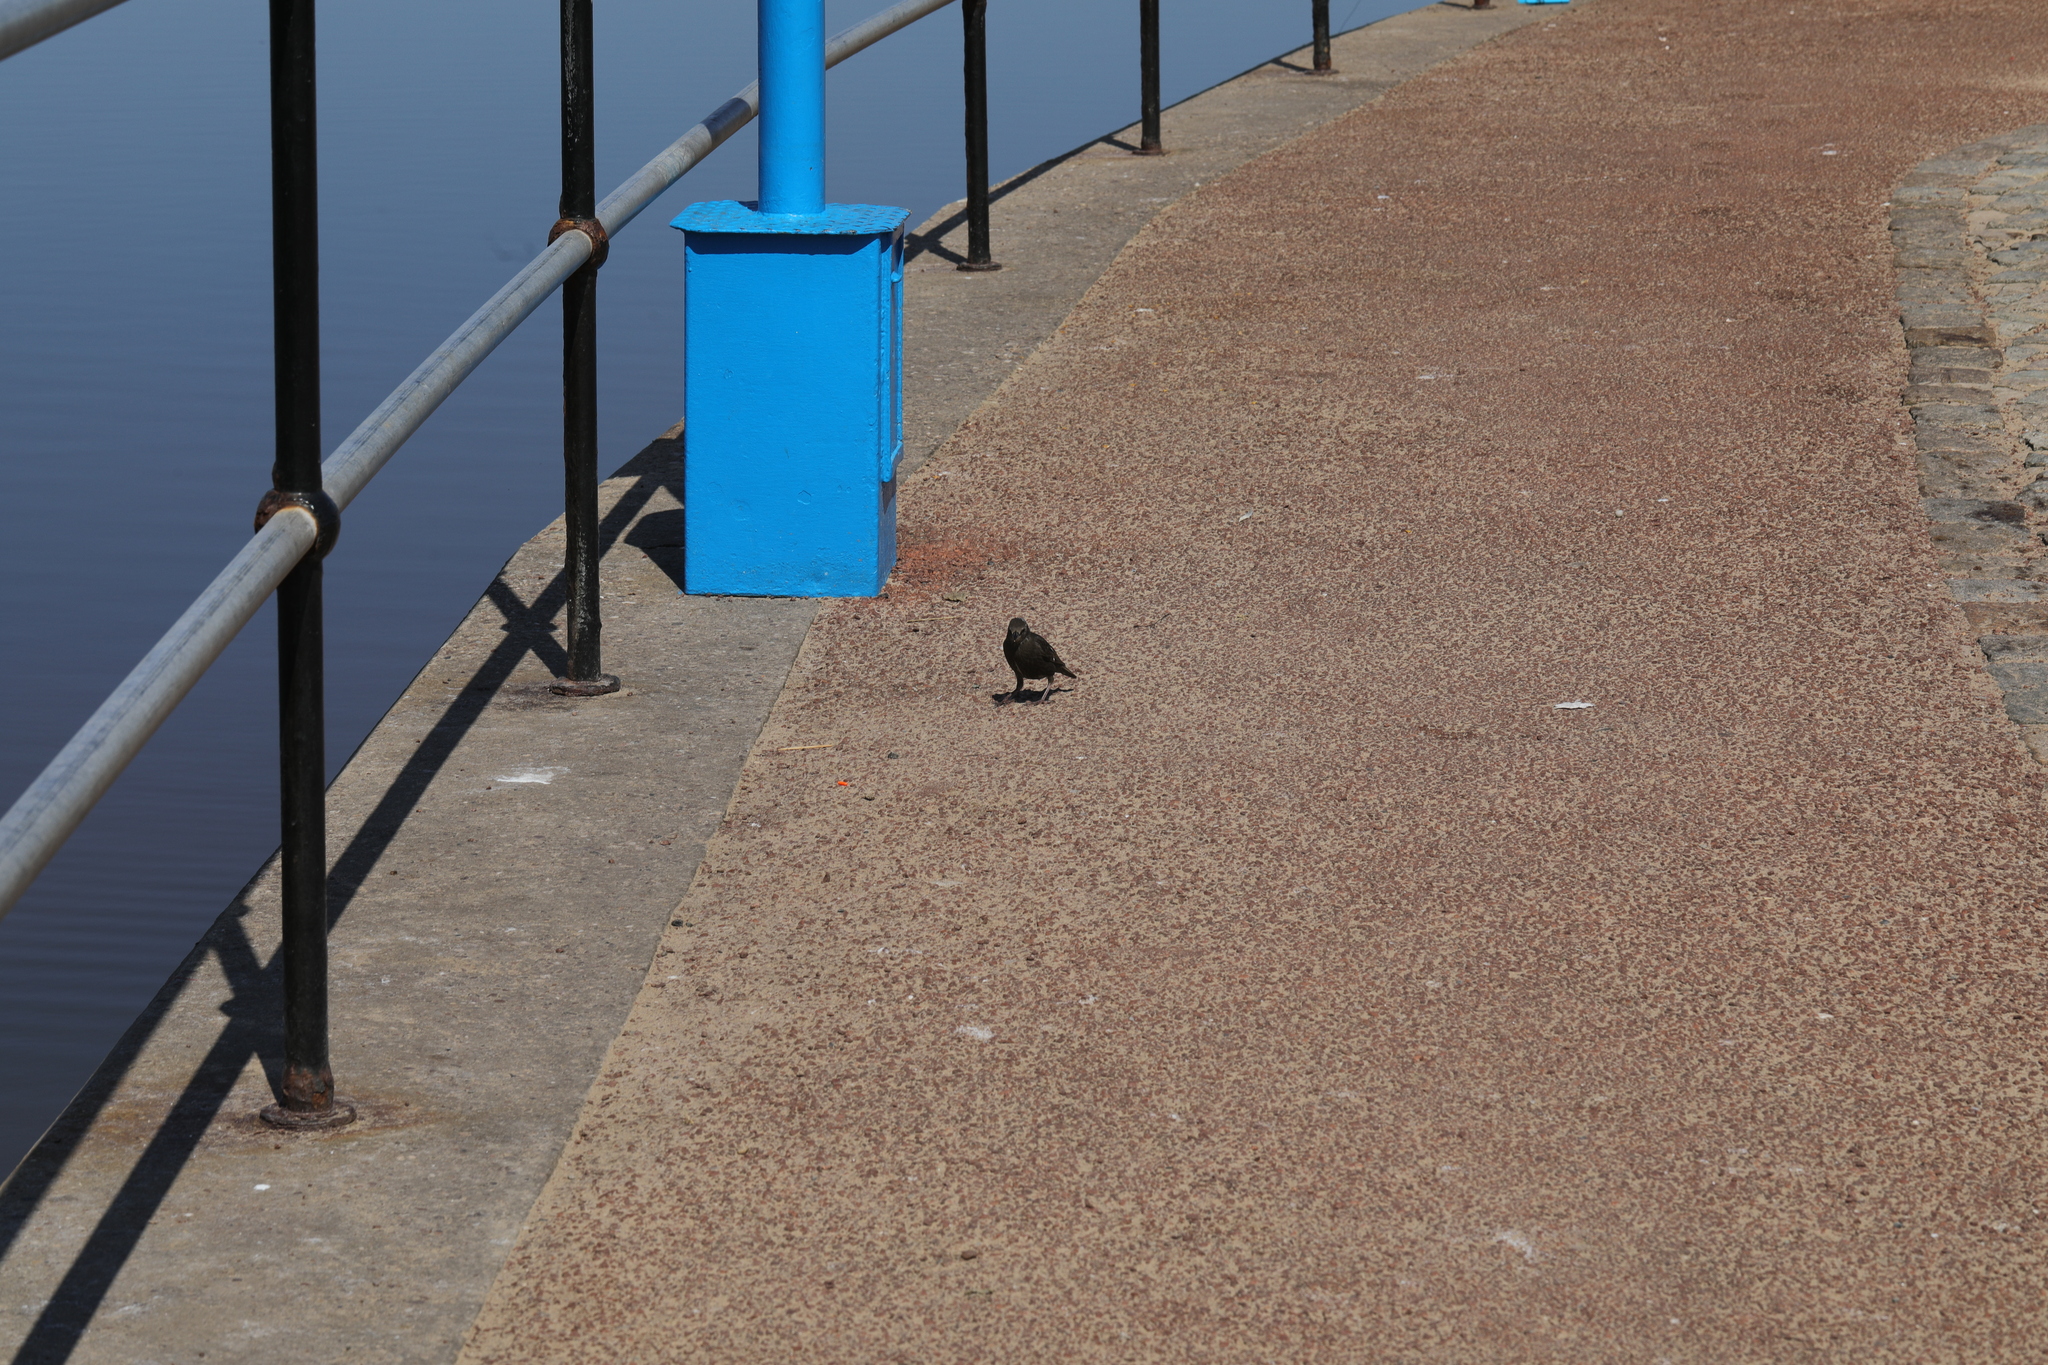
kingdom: Animalia
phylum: Chordata
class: Aves
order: Passeriformes
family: Sturnidae
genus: Sturnus
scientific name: Sturnus vulgaris
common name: Common starling
